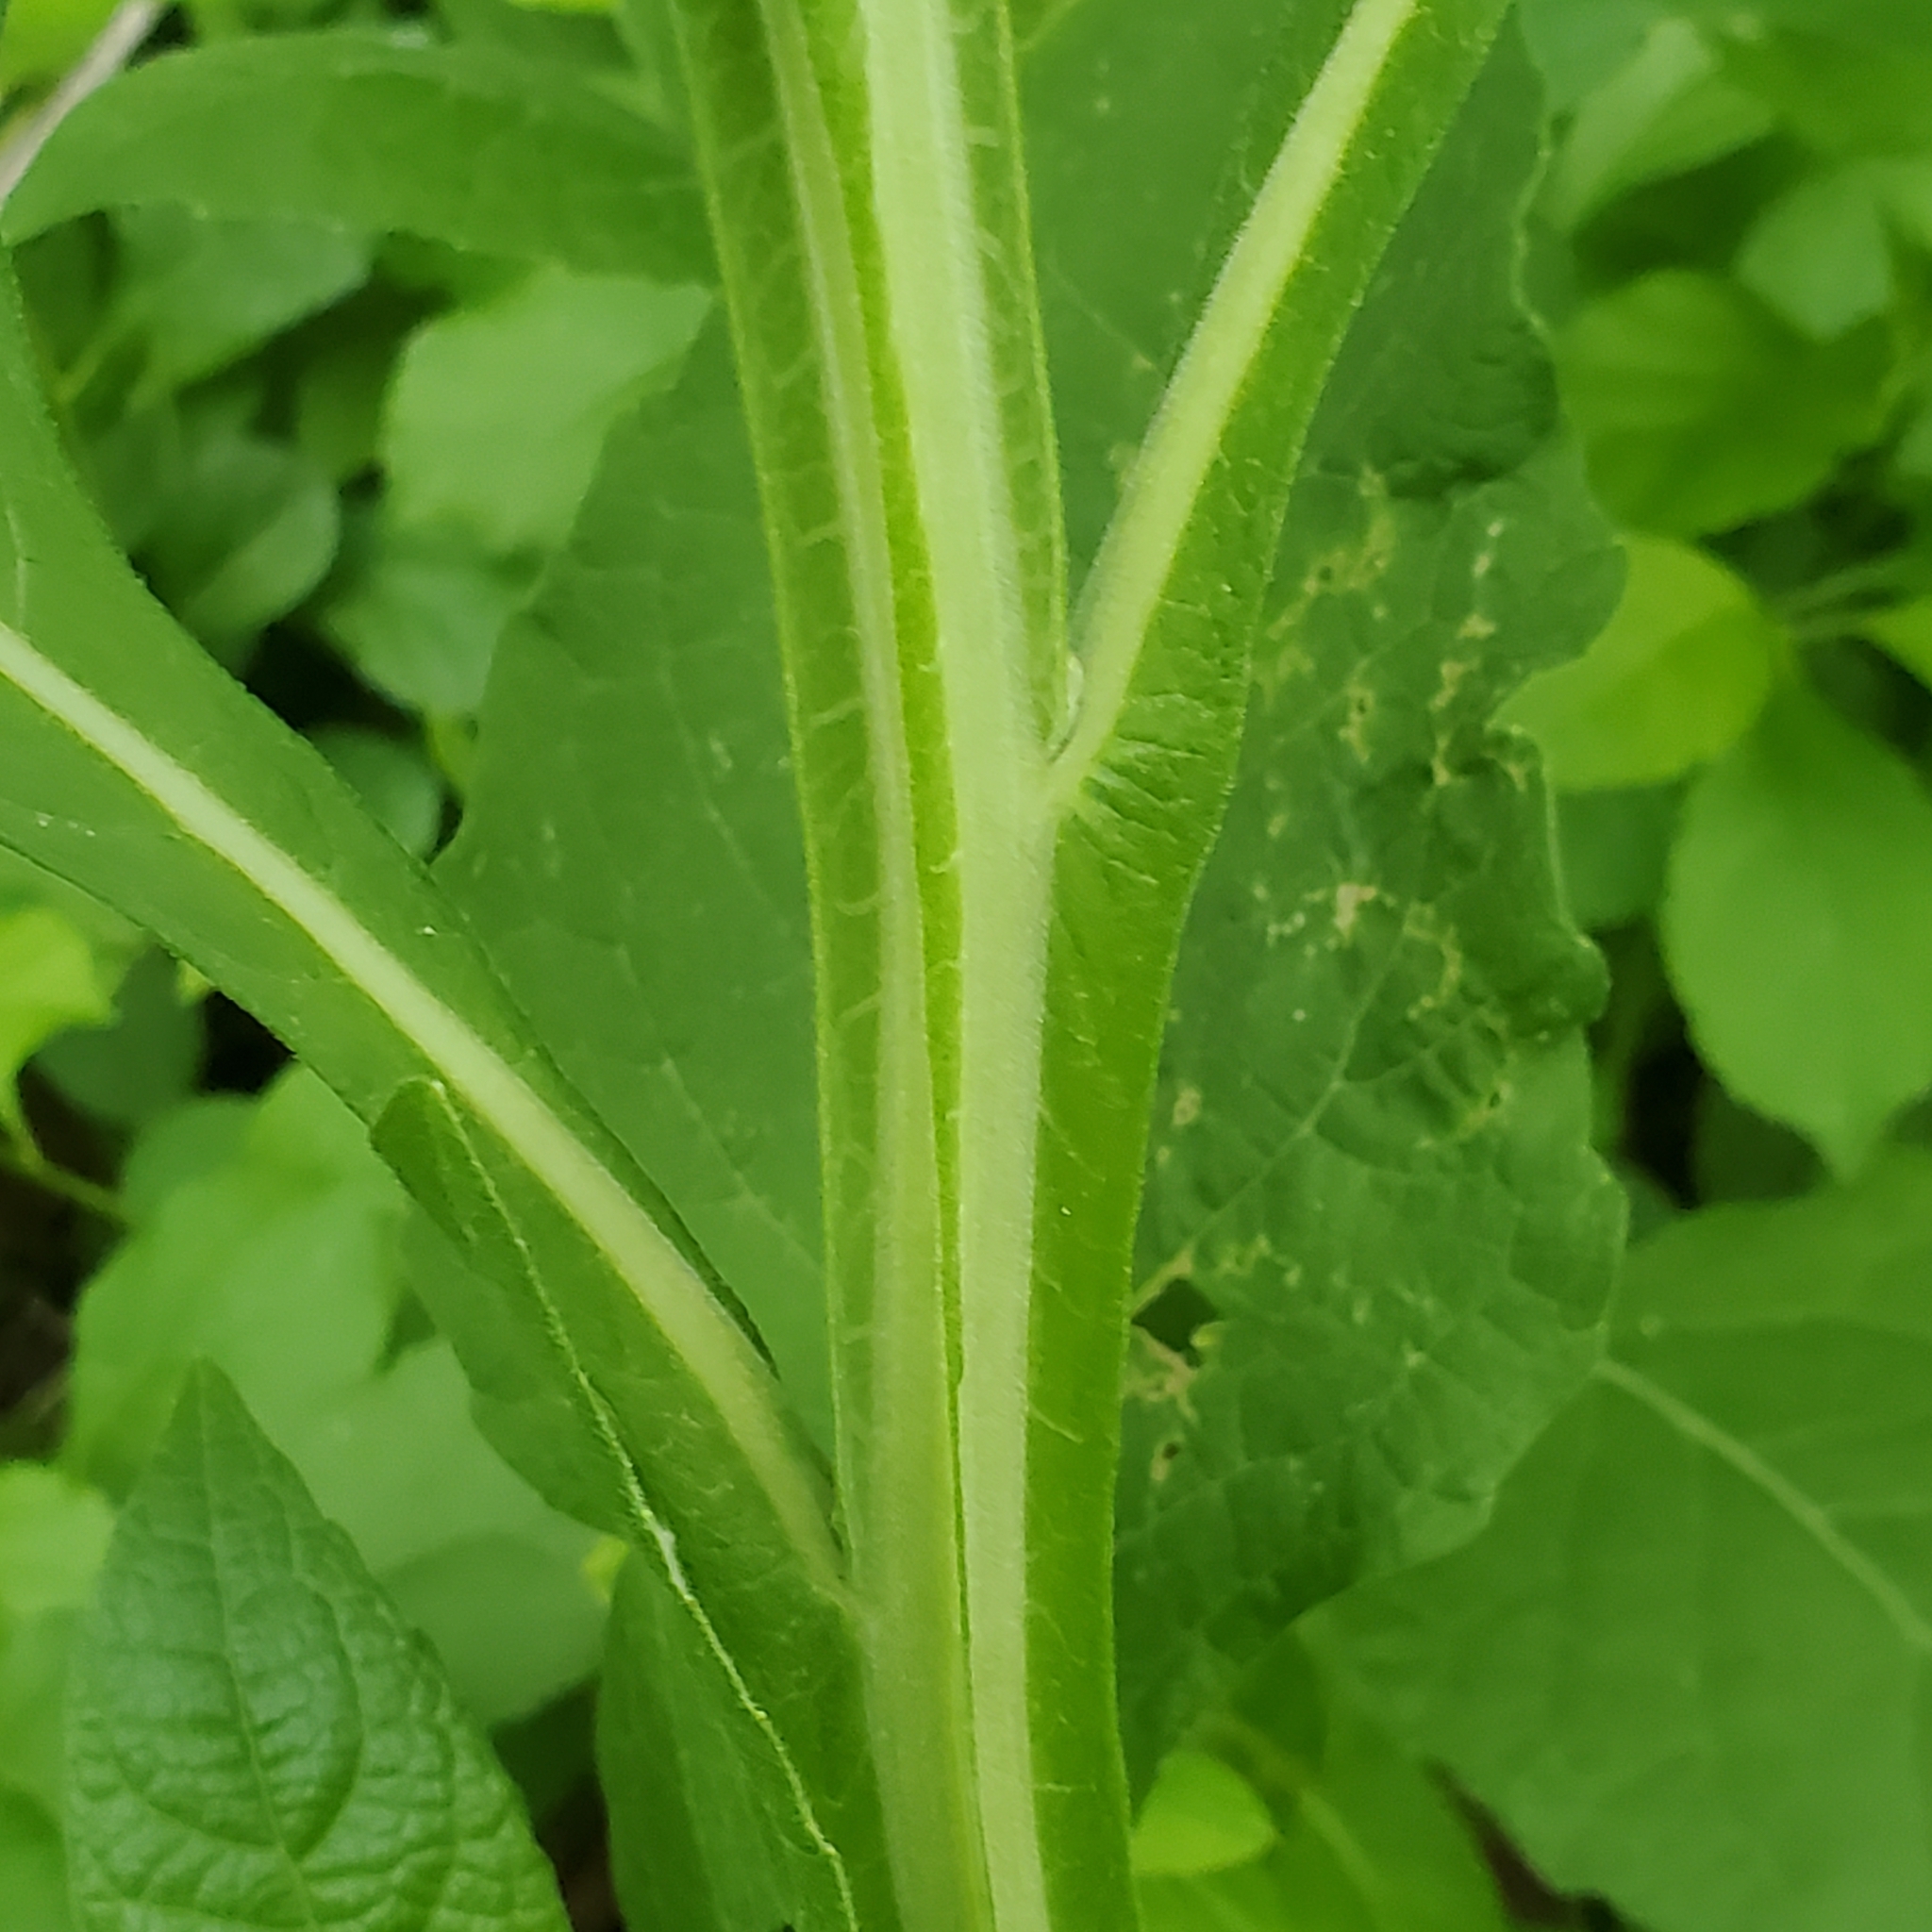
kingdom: Plantae
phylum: Tracheophyta
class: Magnoliopsida
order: Asterales
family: Asteraceae
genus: Verbesina
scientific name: Verbesina virginica
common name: Frostweed
